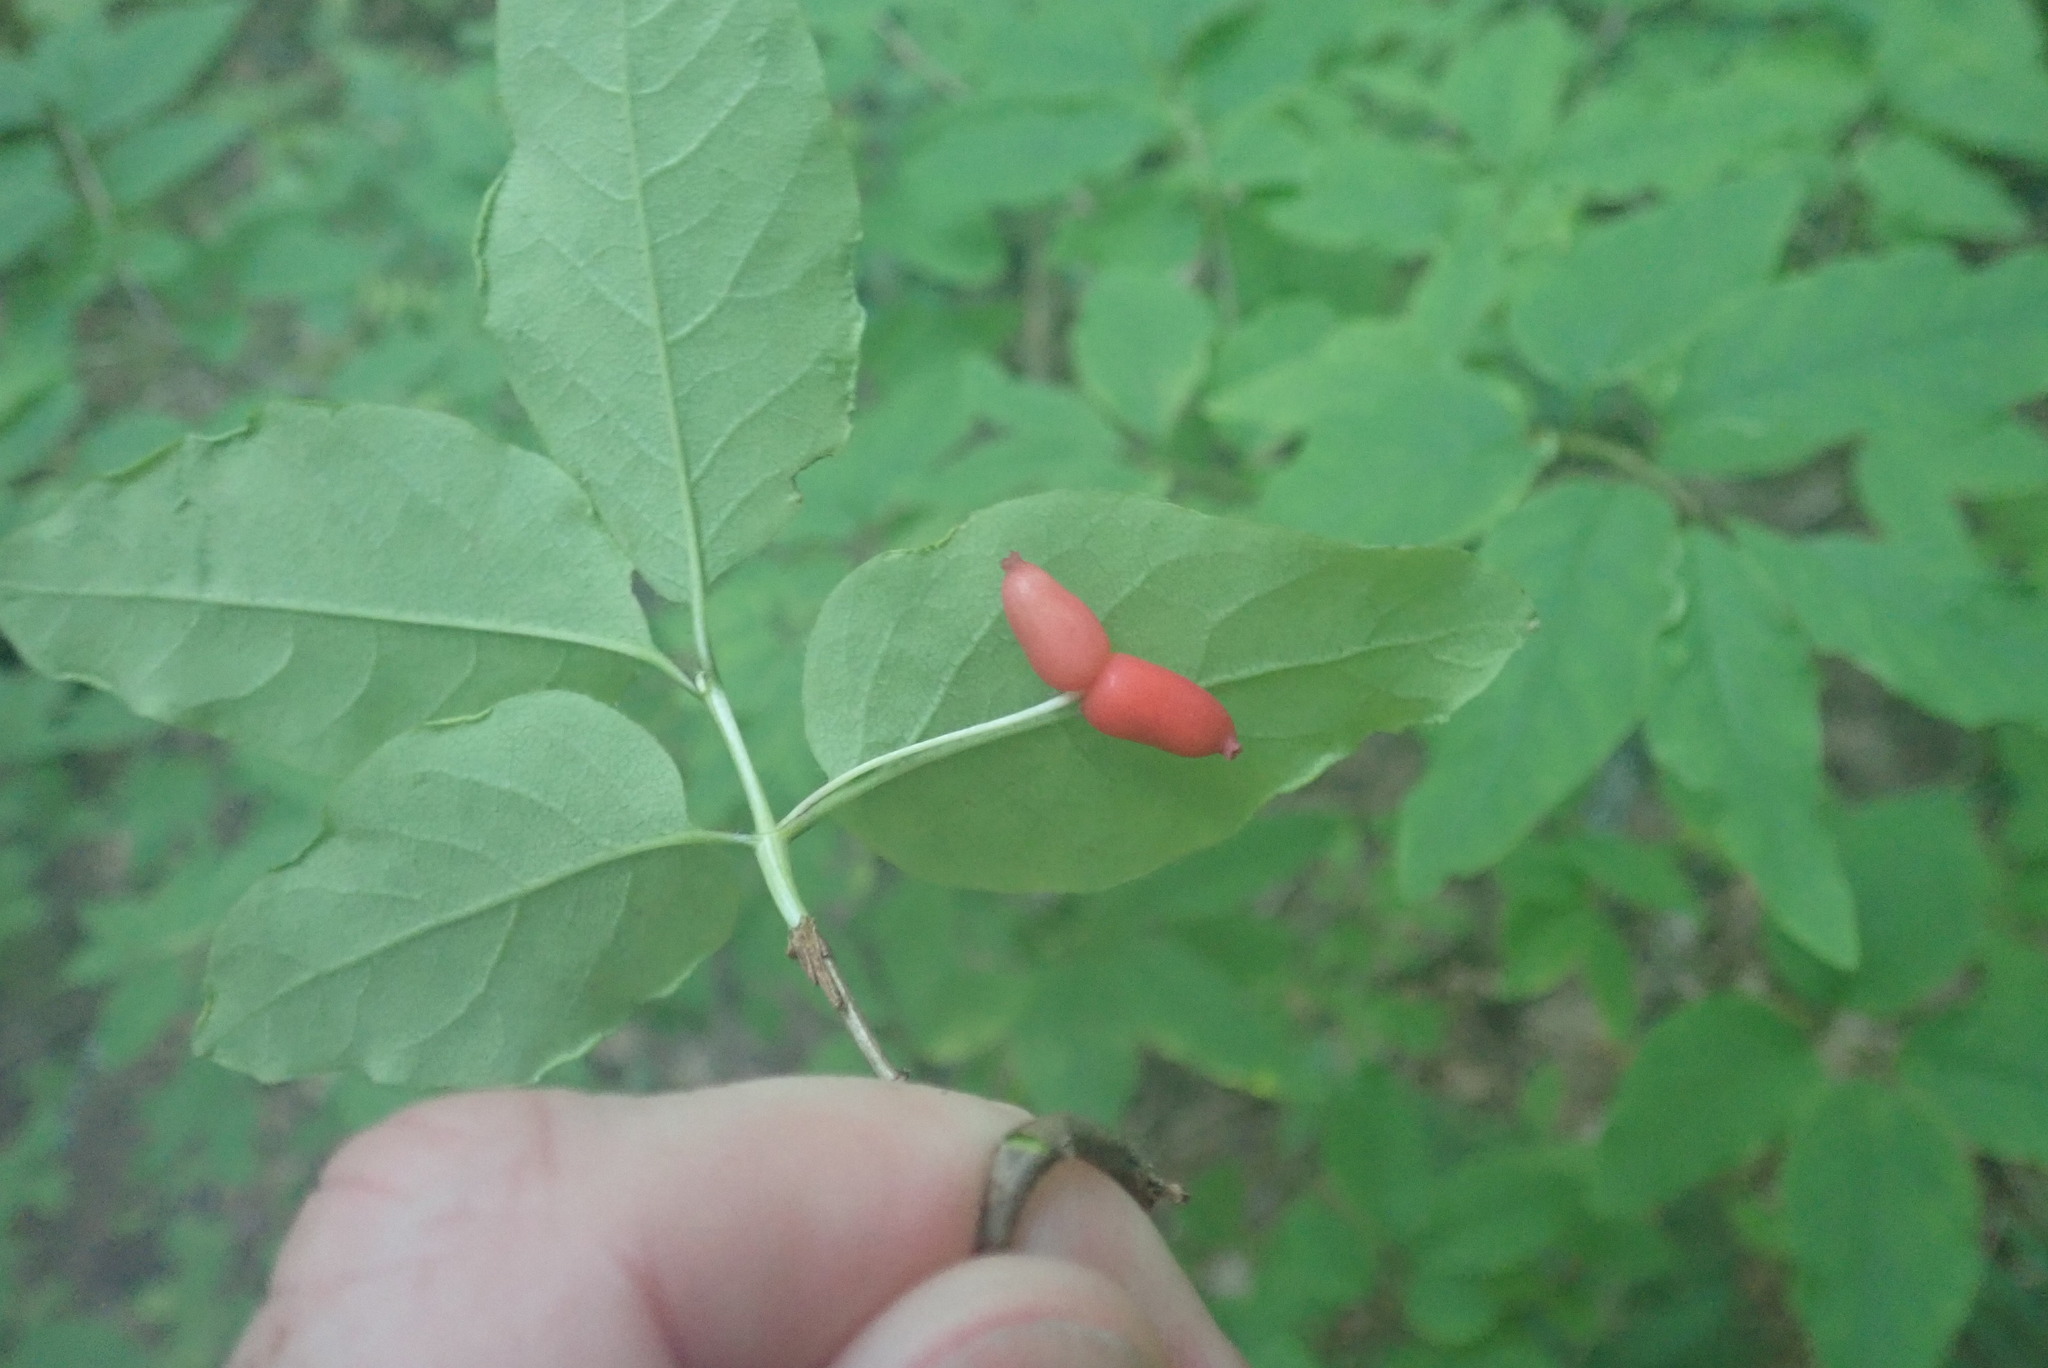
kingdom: Plantae
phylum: Tracheophyta
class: Magnoliopsida
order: Dipsacales
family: Caprifoliaceae
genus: Lonicera
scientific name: Lonicera canadensis
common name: American fly-honeysuckle
